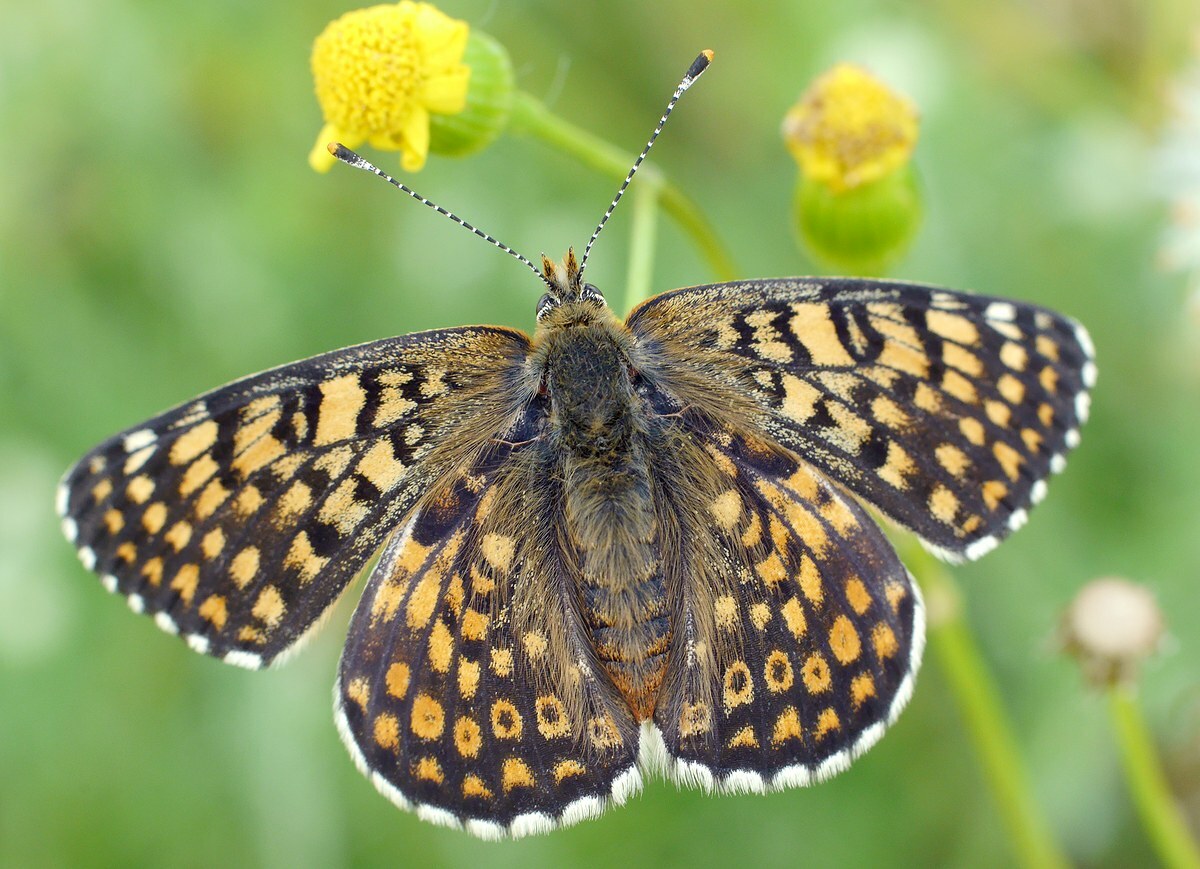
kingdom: Animalia
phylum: Arthropoda
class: Insecta
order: Lepidoptera
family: Nymphalidae
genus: Melitaea
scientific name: Melitaea cinxia
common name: Glanville fritillary
